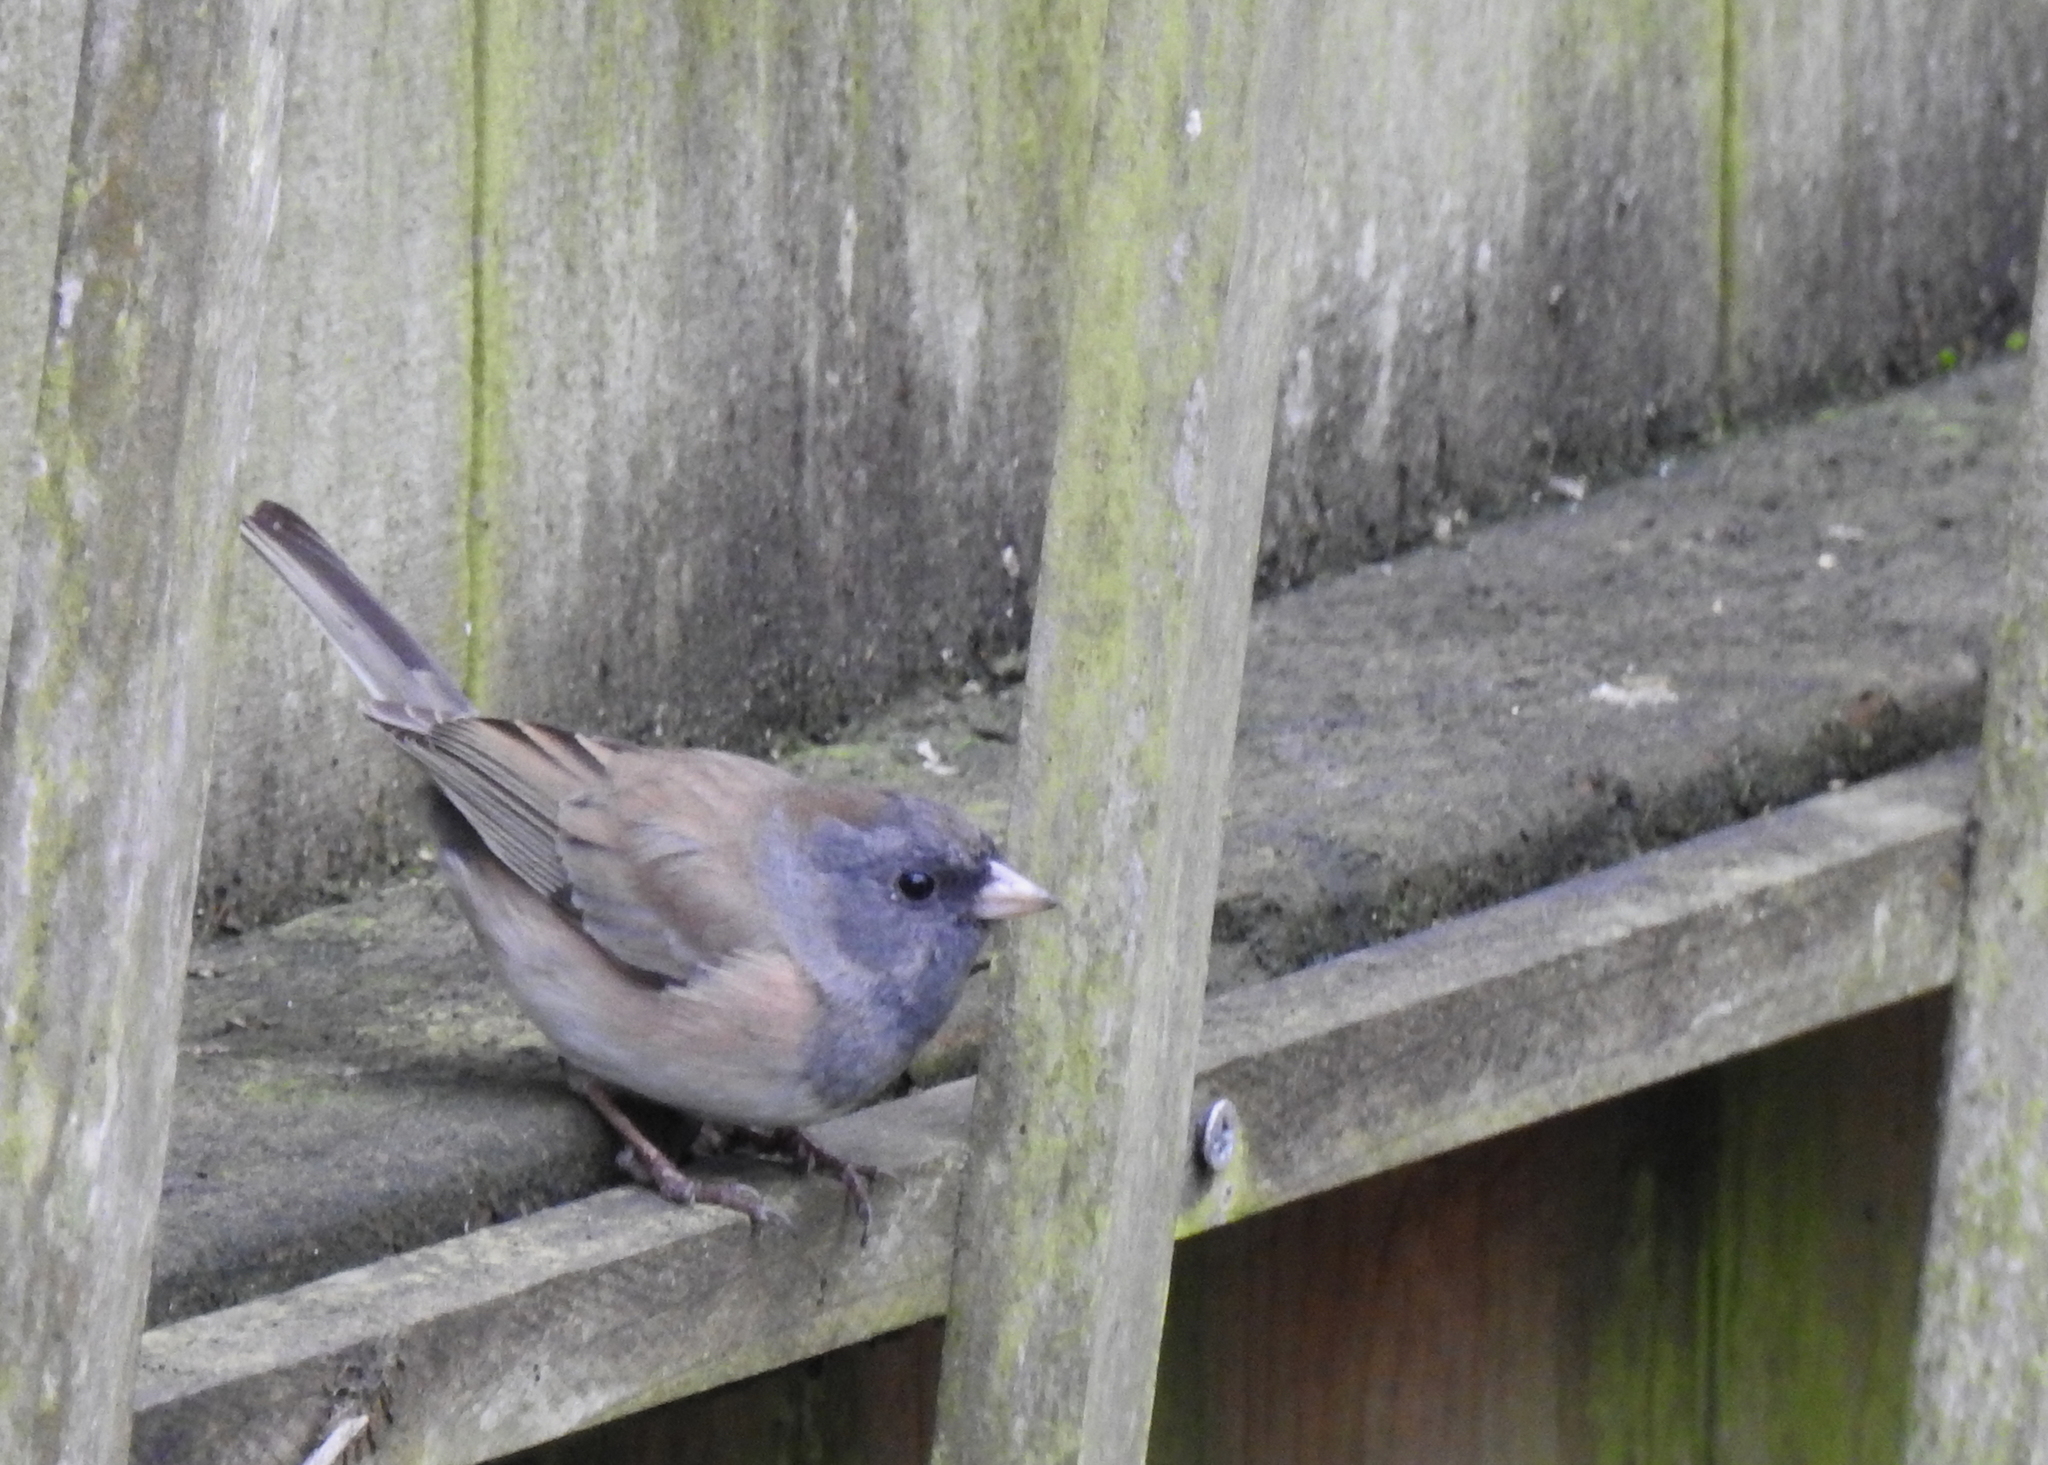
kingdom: Animalia
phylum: Chordata
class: Aves
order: Passeriformes
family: Passerellidae
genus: Junco
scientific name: Junco hyemalis
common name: Dark-eyed junco
